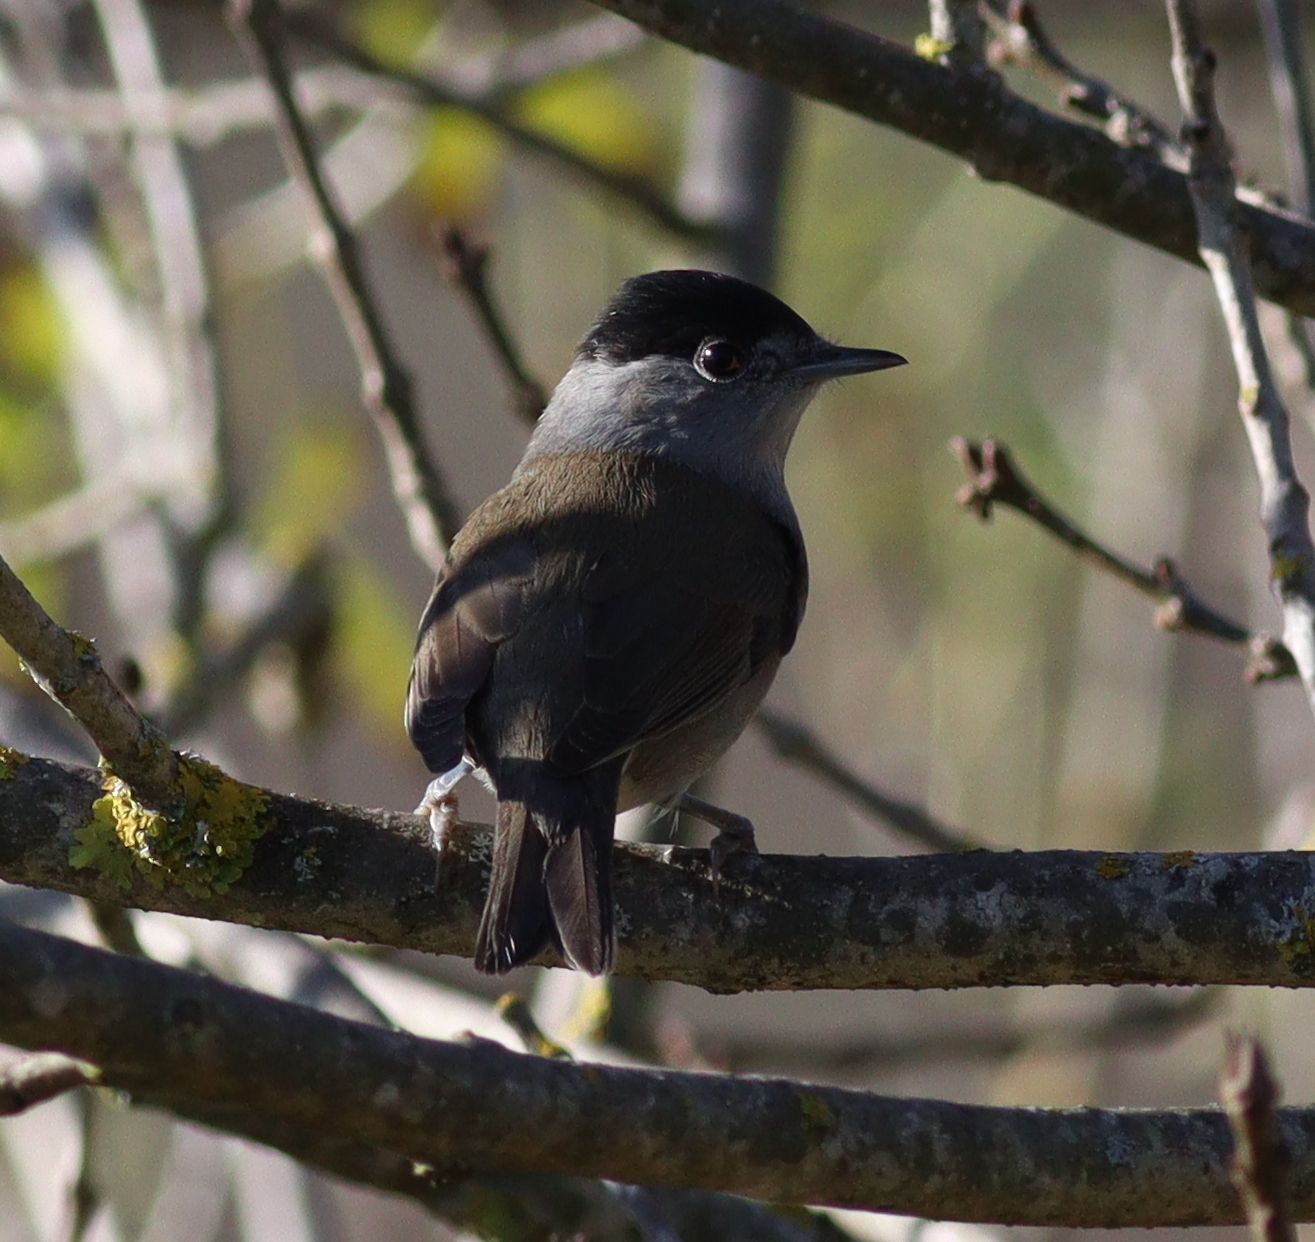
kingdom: Animalia
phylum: Chordata
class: Aves
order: Passeriformes
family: Sylviidae
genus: Sylvia
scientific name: Sylvia atricapilla
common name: Eurasian blackcap
